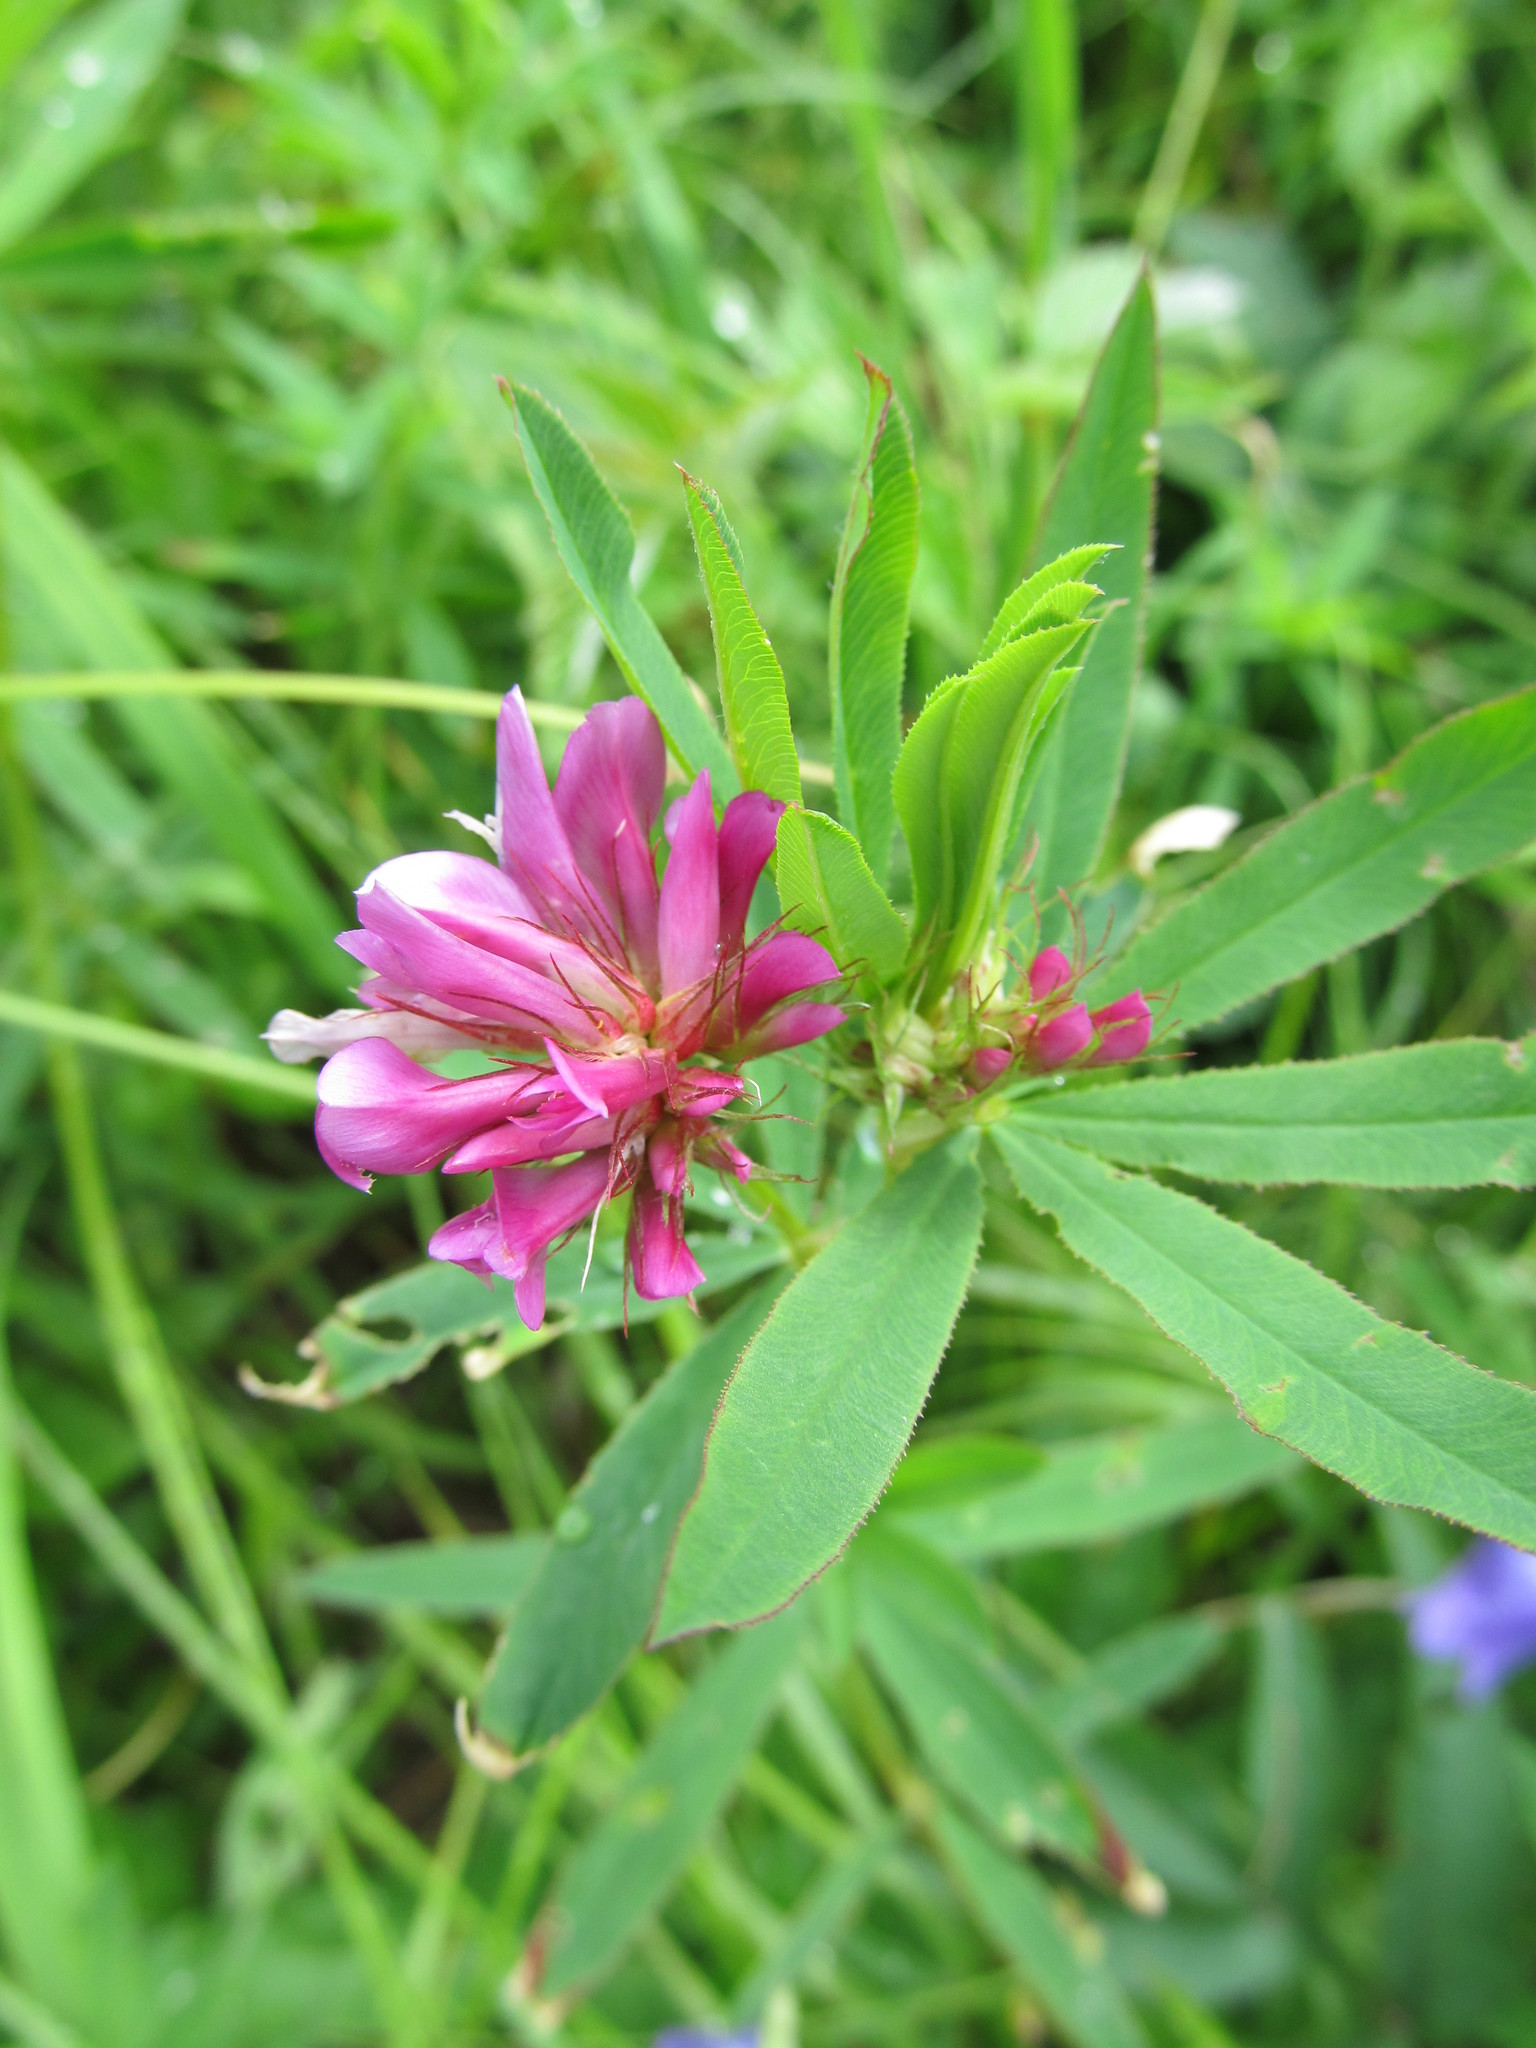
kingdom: Plantae
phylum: Tracheophyta
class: Magnoliopsida
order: Fabales
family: Fabaceae
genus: Trifolium
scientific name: Trifolium lupinaster
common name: Lupine clover
